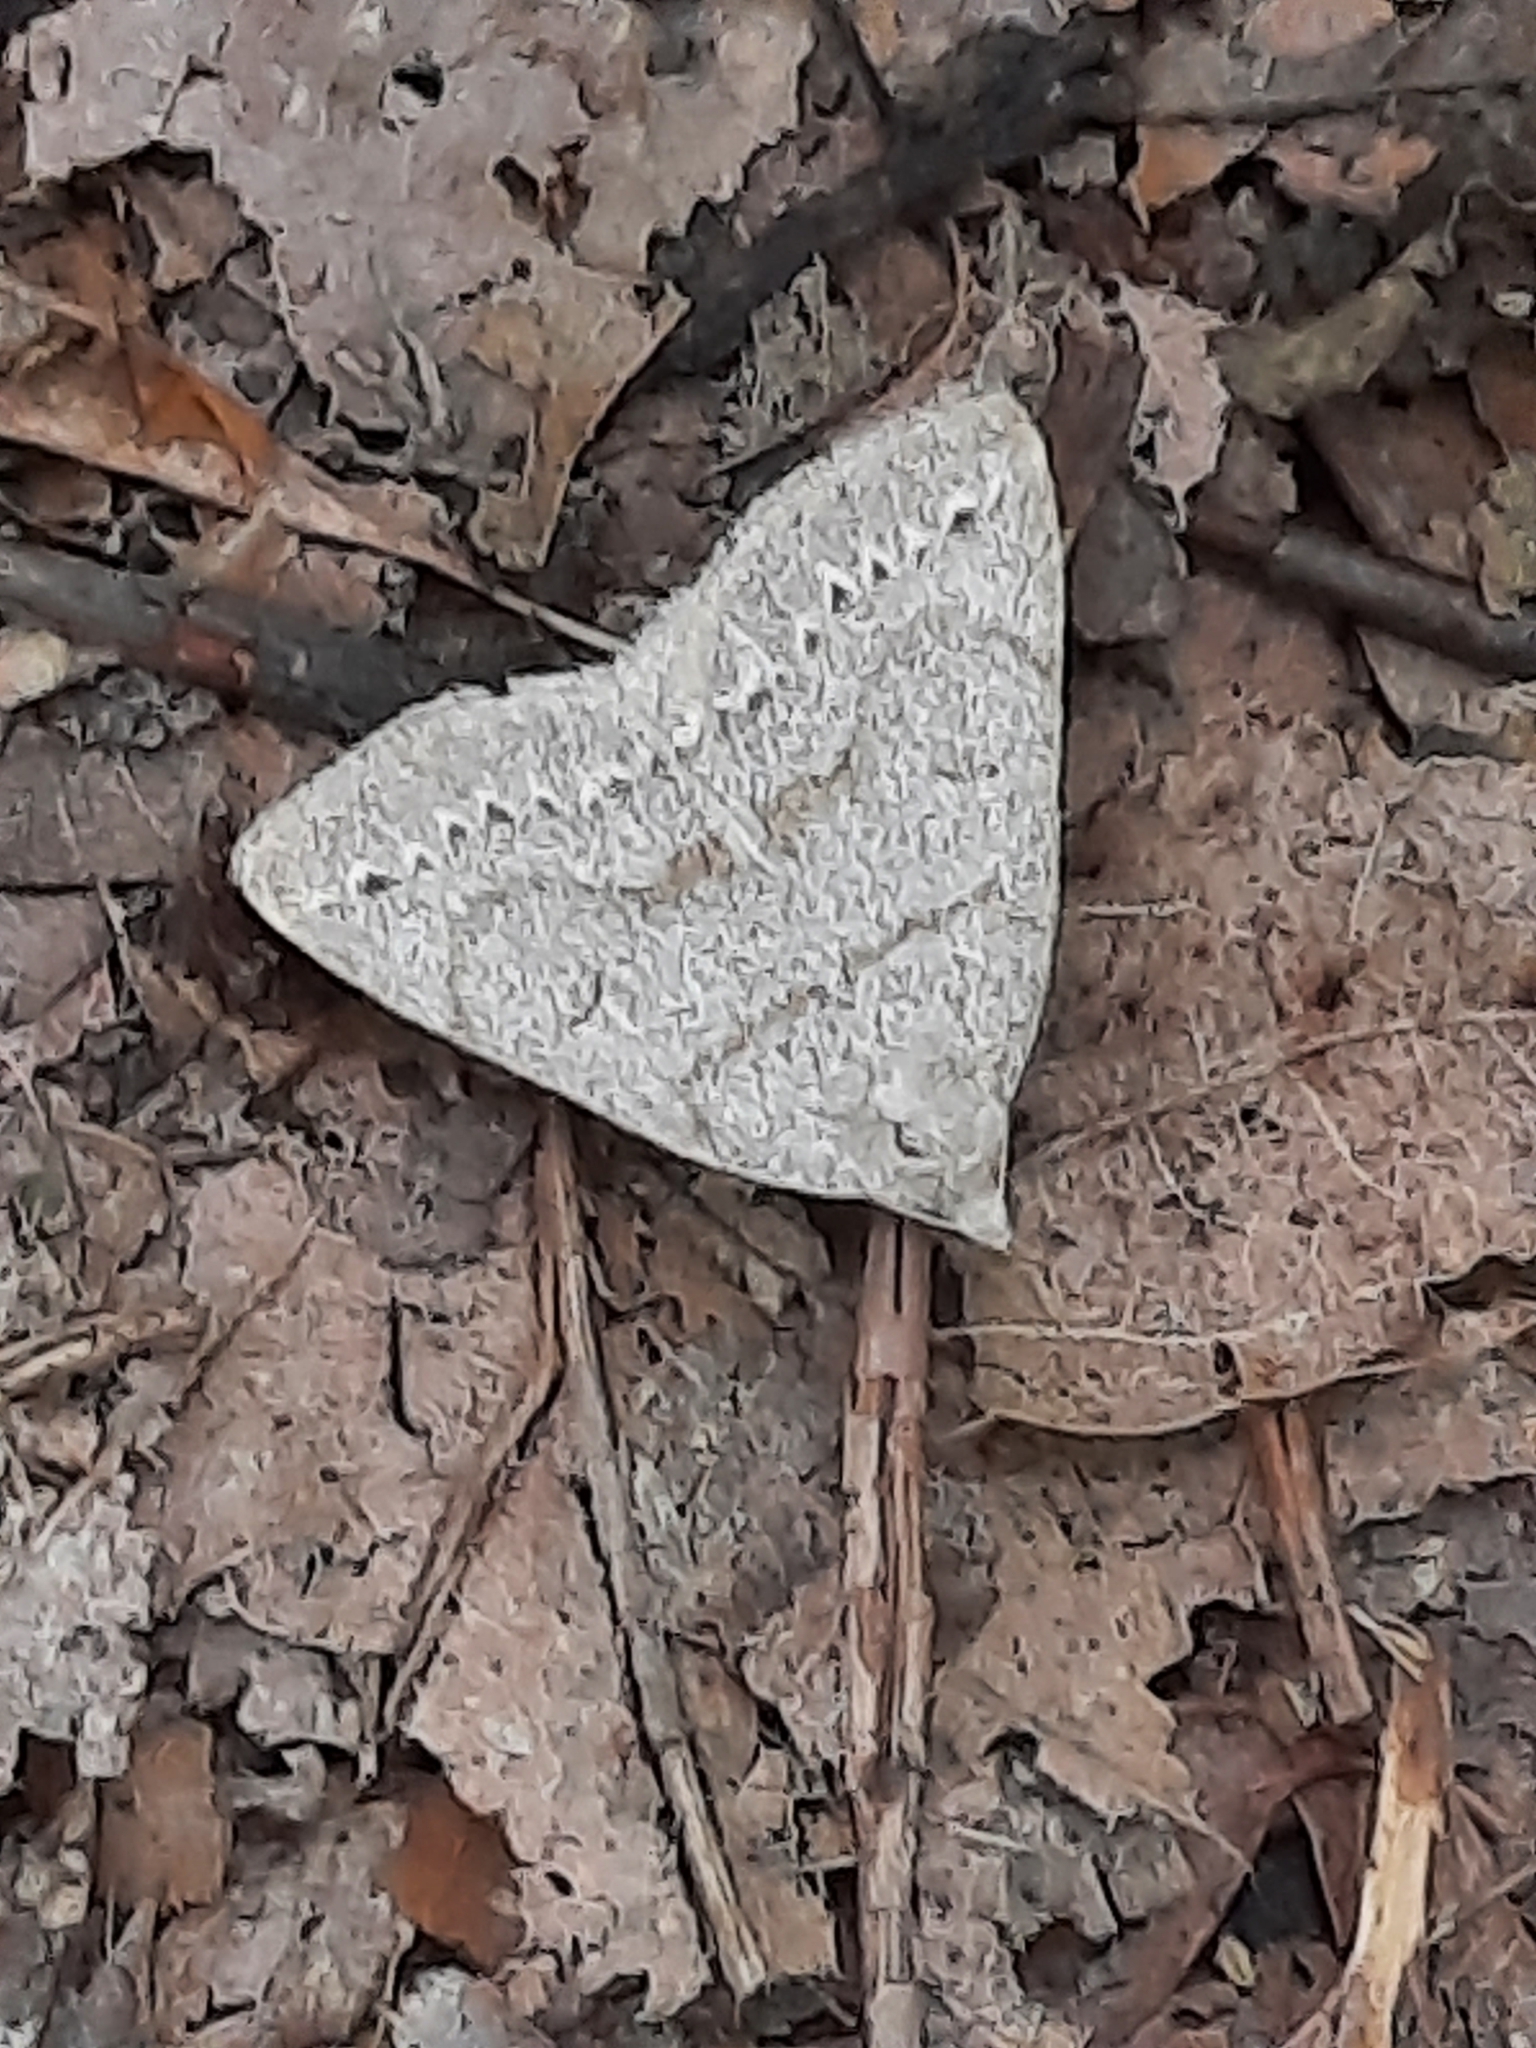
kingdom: Animalia
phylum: Arthropoda
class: Insecta
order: Lepidoptera
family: Erebidae
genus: Macrochilo
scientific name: Macrochilo morbidalis
